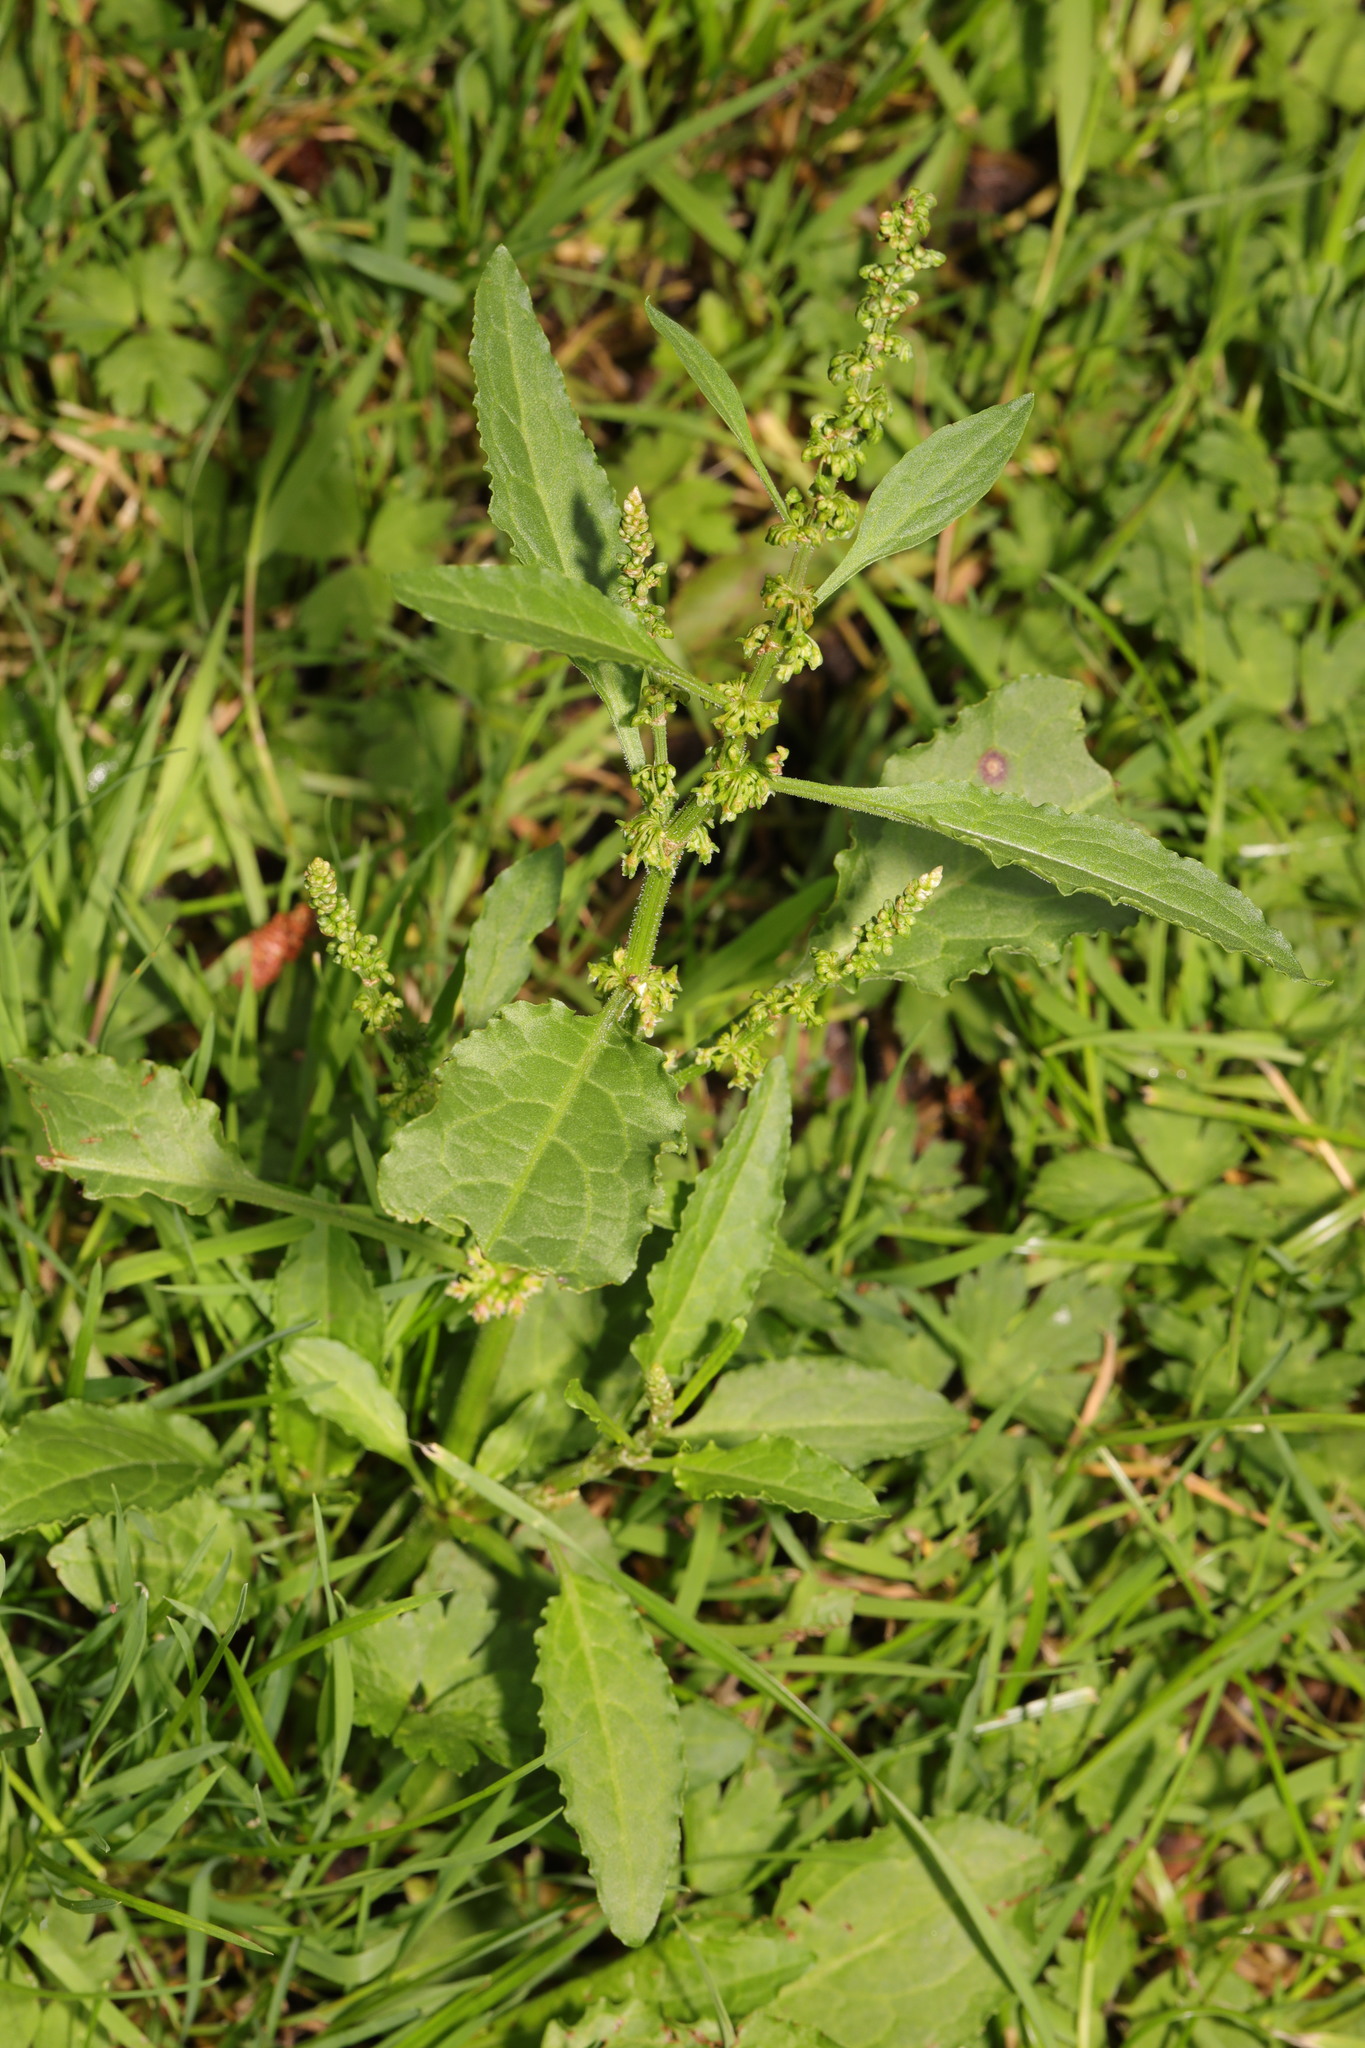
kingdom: Plantae
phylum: Tracheophyta
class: Magnoliopsida
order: Caryophyllales
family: Polygonaceae
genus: Rumex
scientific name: Rumex obtusifolius
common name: Bitter dock
